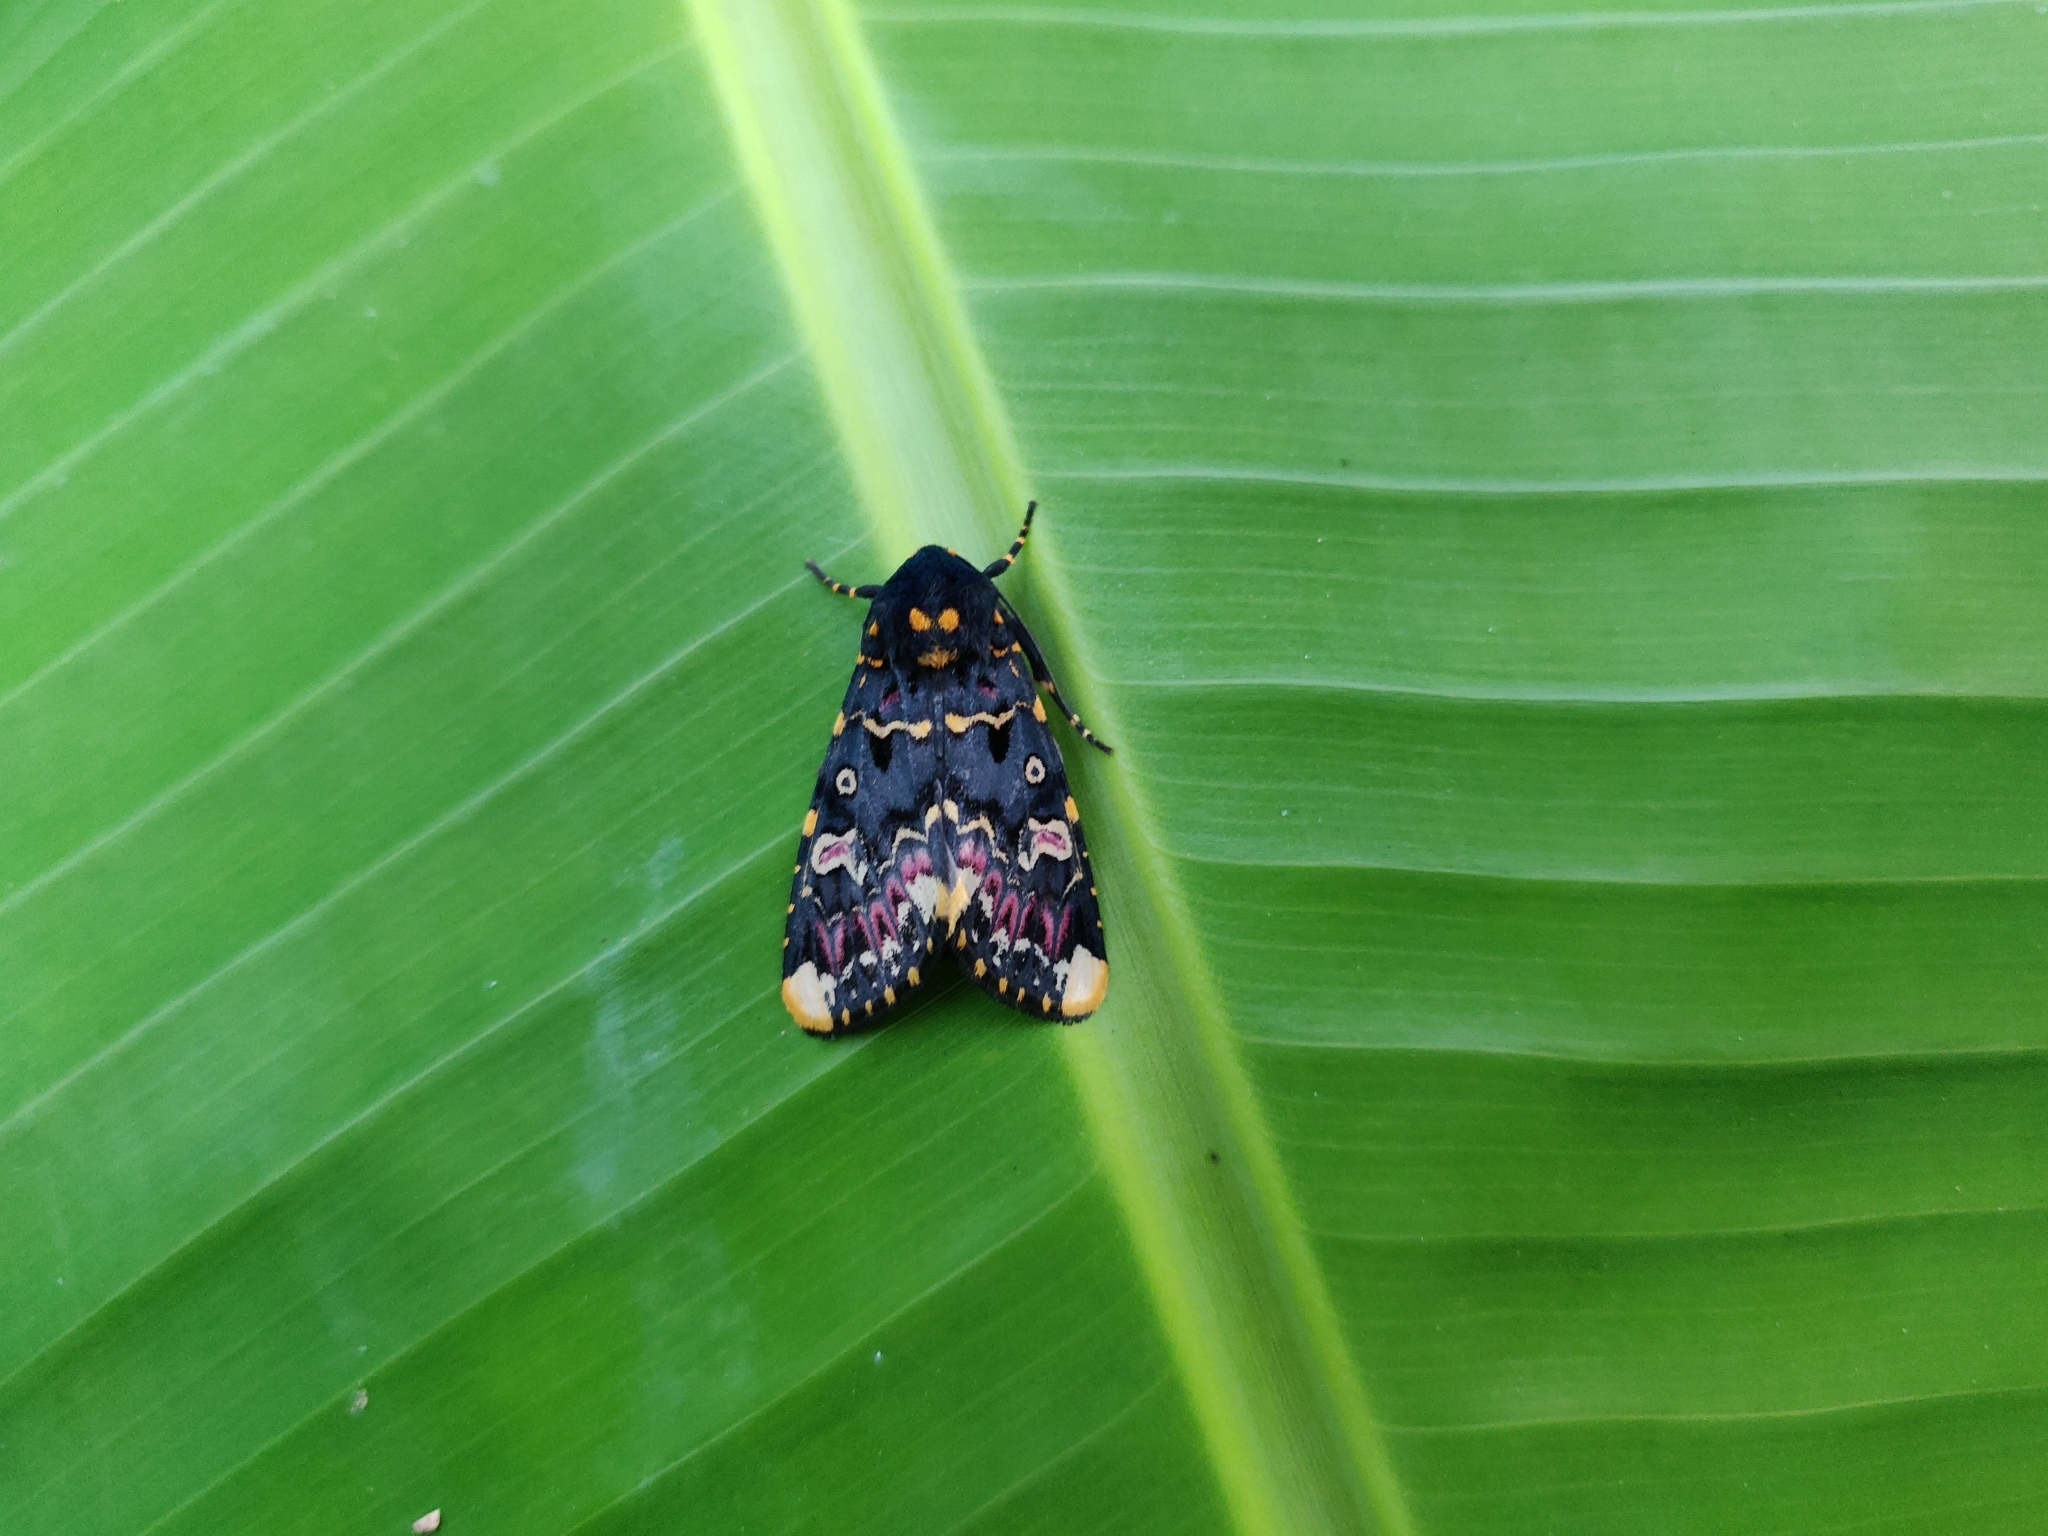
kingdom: Animalia
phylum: Arthropoda
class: Insecta
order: Lepidoptera
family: Noctuidae
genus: Polytela
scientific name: Polytela gloriosae
